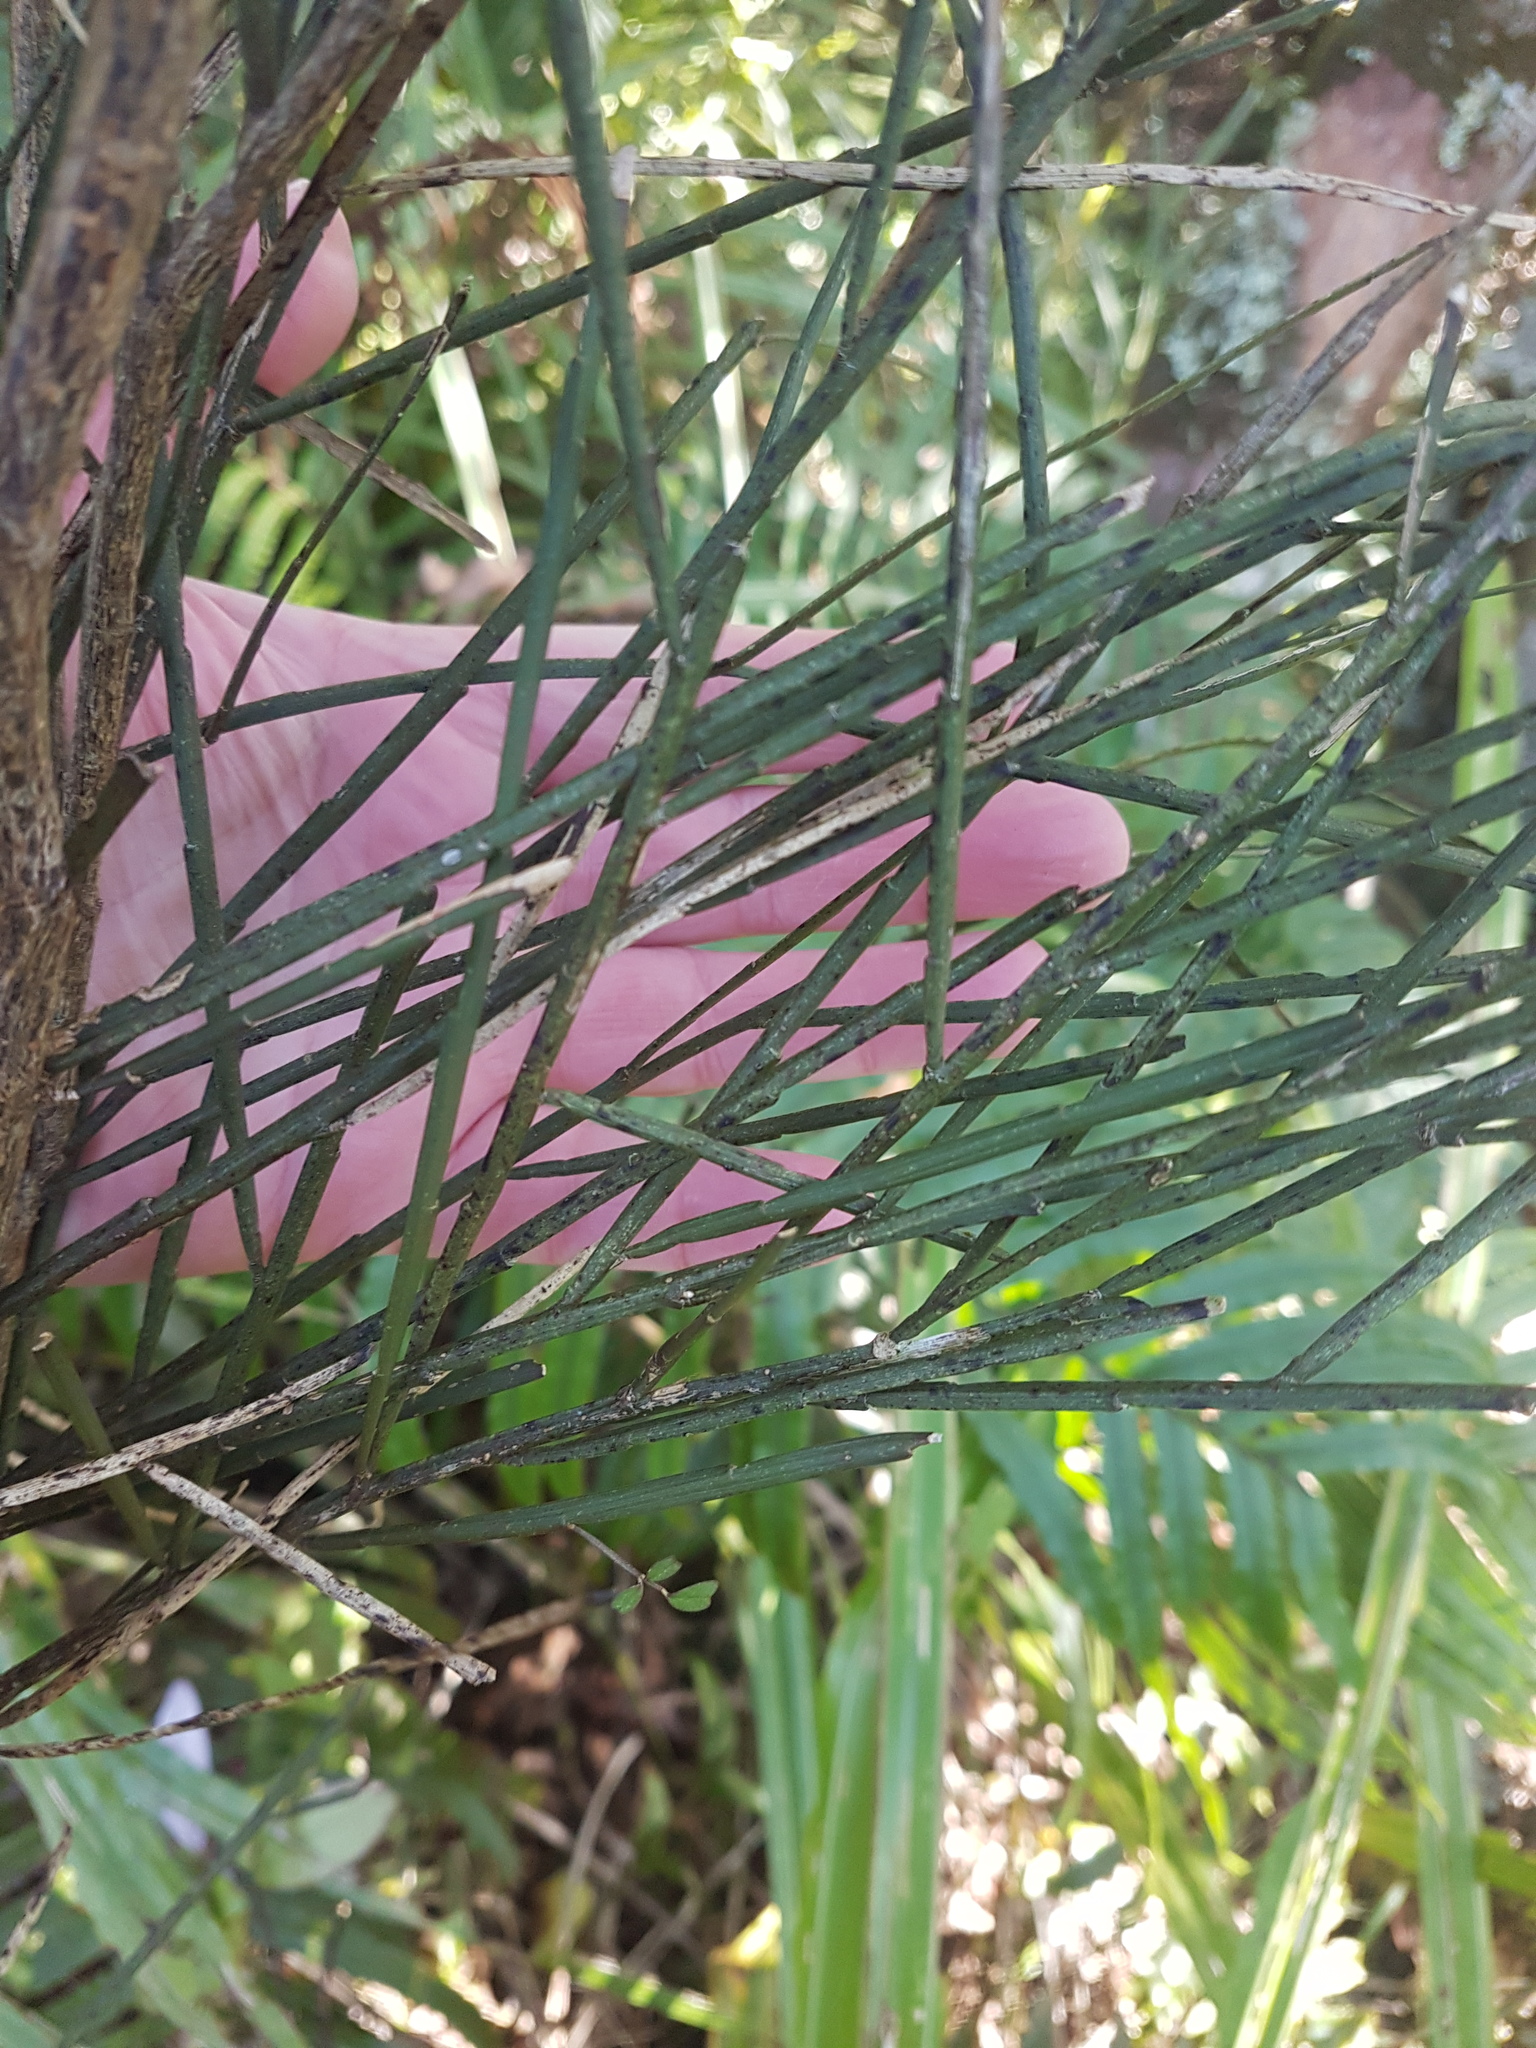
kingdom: Plantae
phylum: Tracheophyta
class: Magnoliopsida
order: Fabales
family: Fabaceae
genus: Carmichaelia
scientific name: Carmichaelia australis
